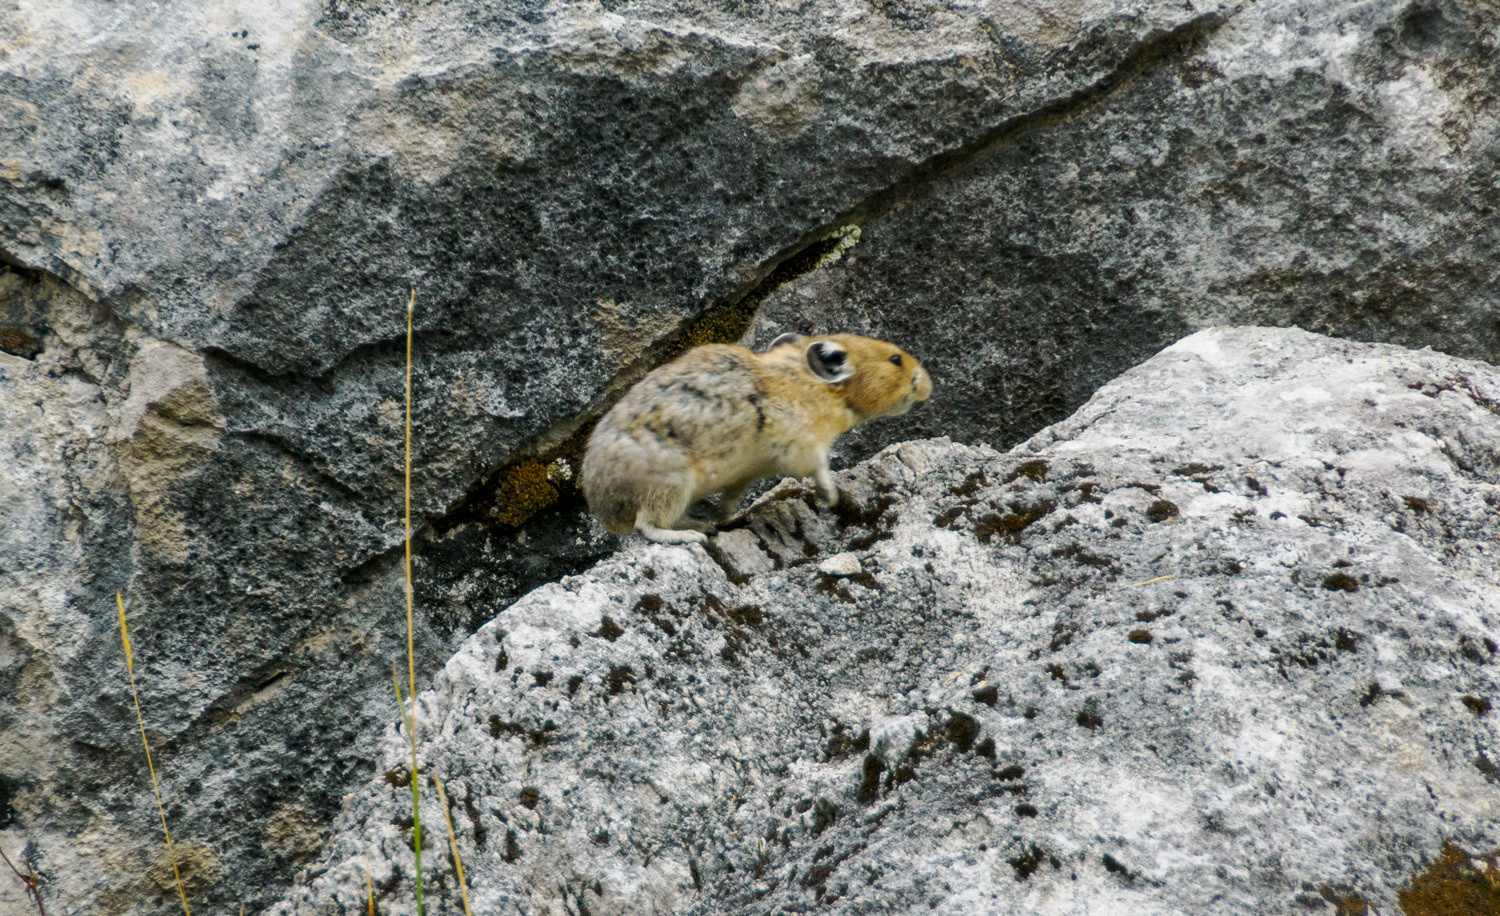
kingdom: Animalia
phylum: Chordata
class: Mammalia
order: Lagomorpha
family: Ochotonidae
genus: Ochotona
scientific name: Ochotona princeps
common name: American pika
